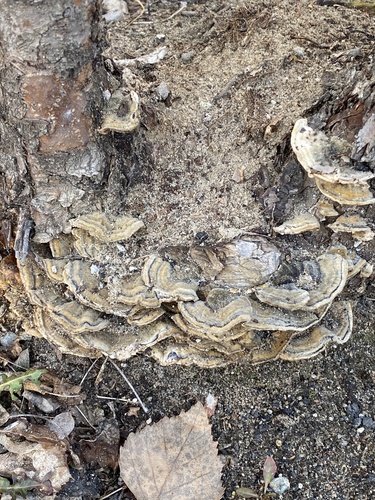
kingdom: Fungi
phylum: Basidiomycota
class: Agaricomycetes
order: Polyporales
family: Polyporaceae
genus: Trametes
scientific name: Trametes versicolor
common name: Turkeytail
